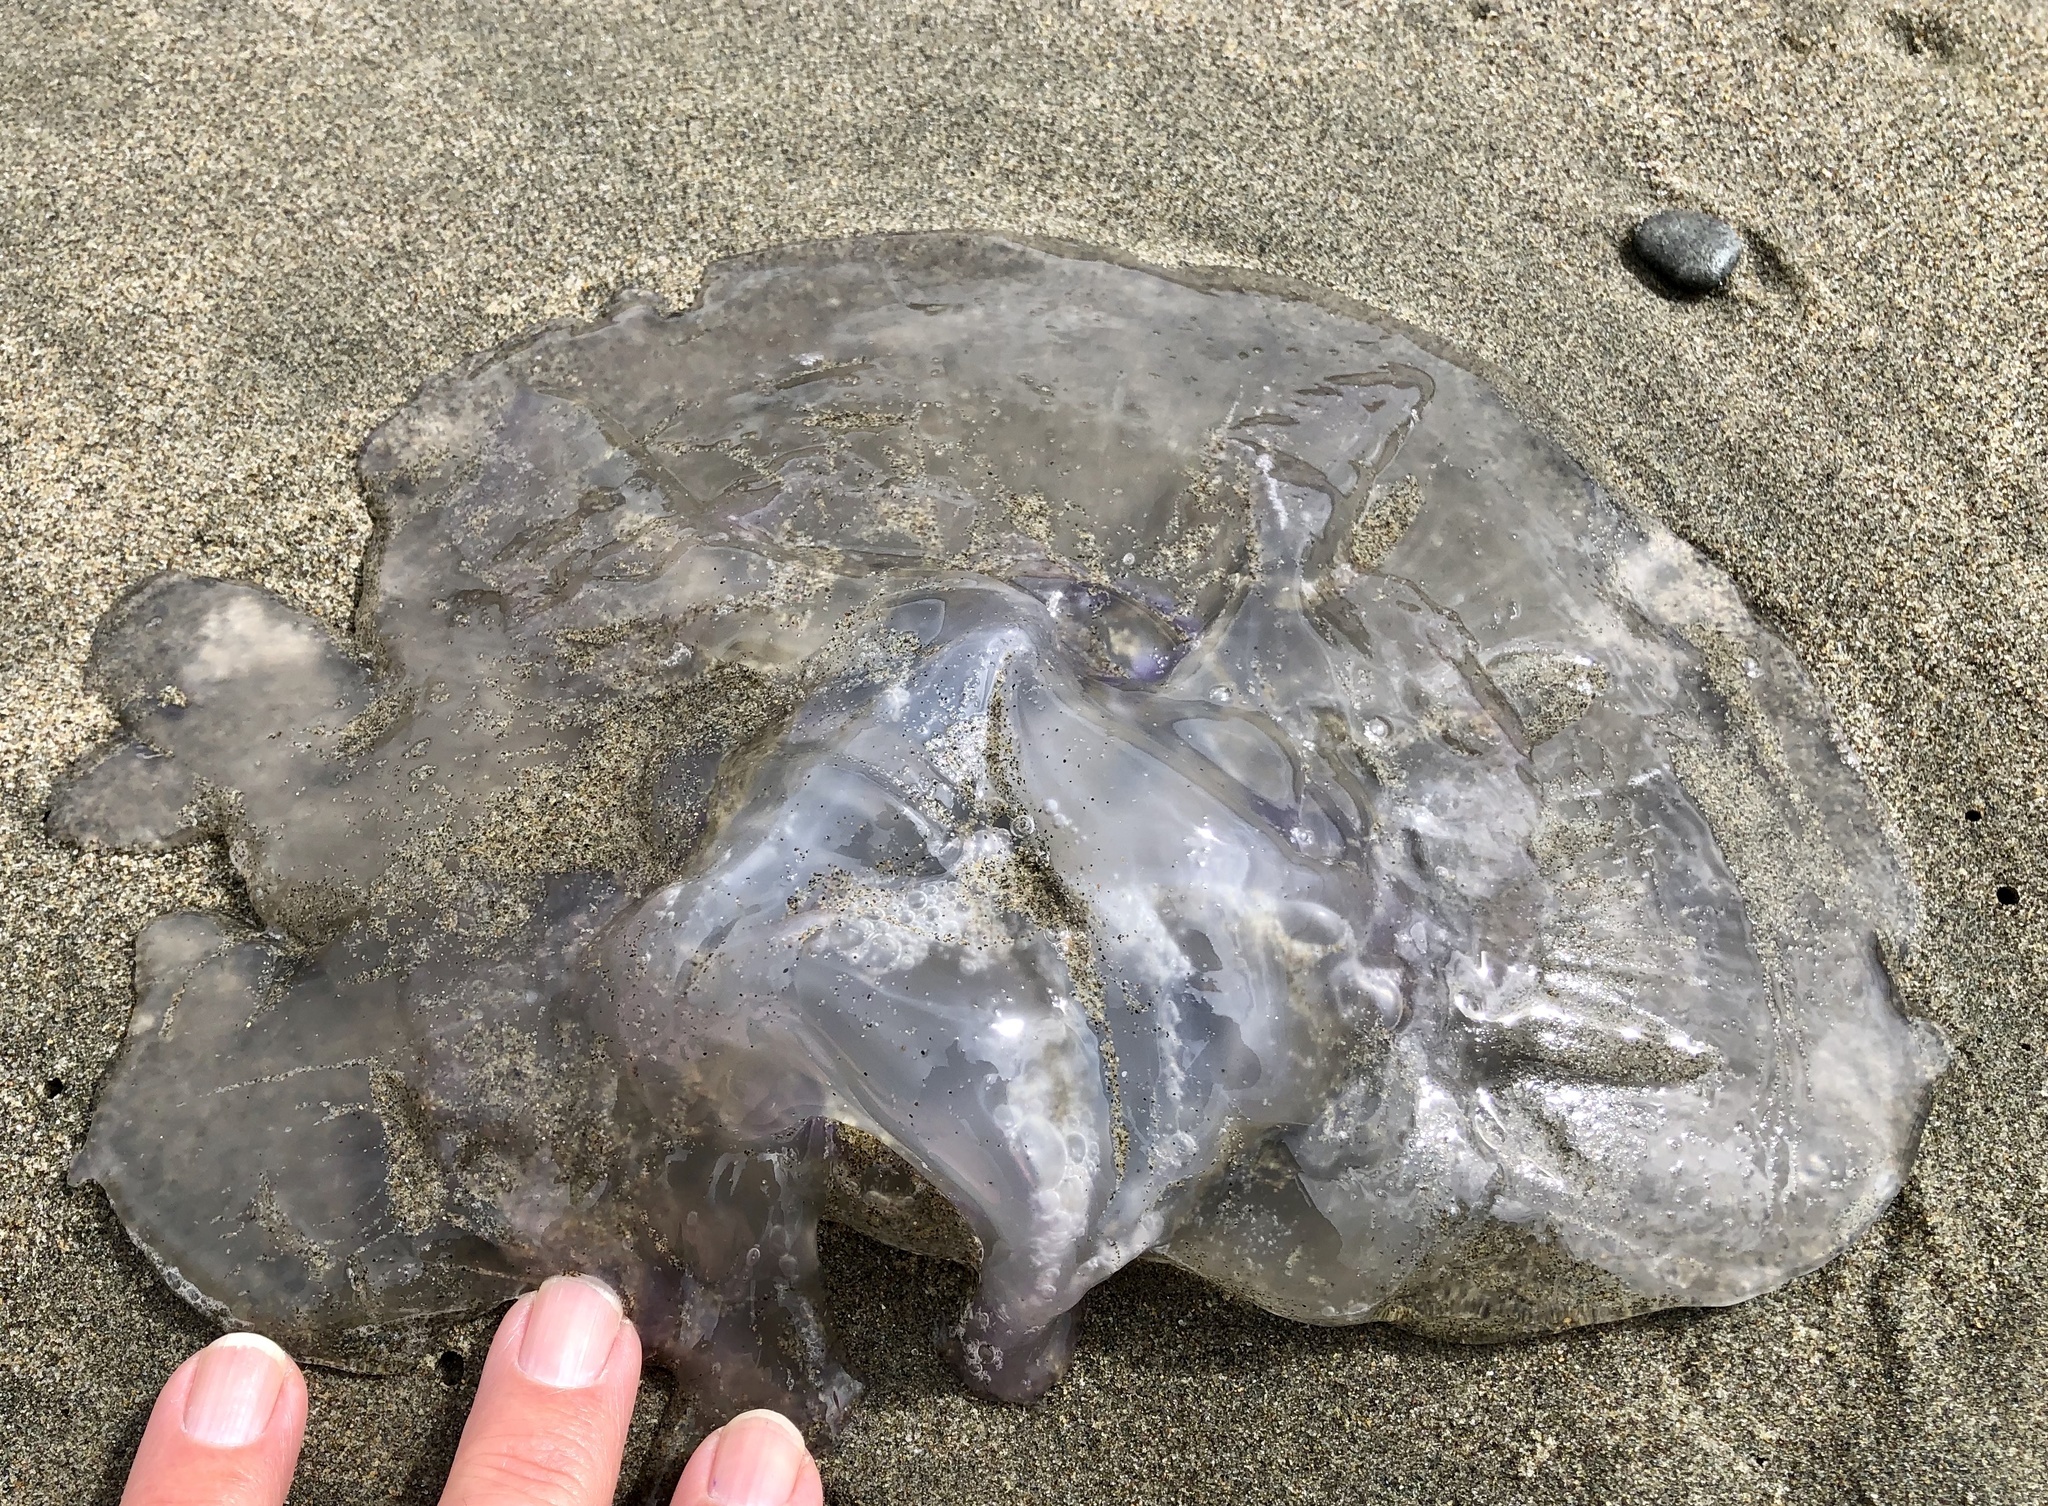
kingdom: Animalia
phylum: Cnidaria
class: Scyphozoa
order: Semaeostomeae
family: Ulmaridae
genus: Aurelia
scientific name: Aurelia labiata
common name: Pacific moon jelly
